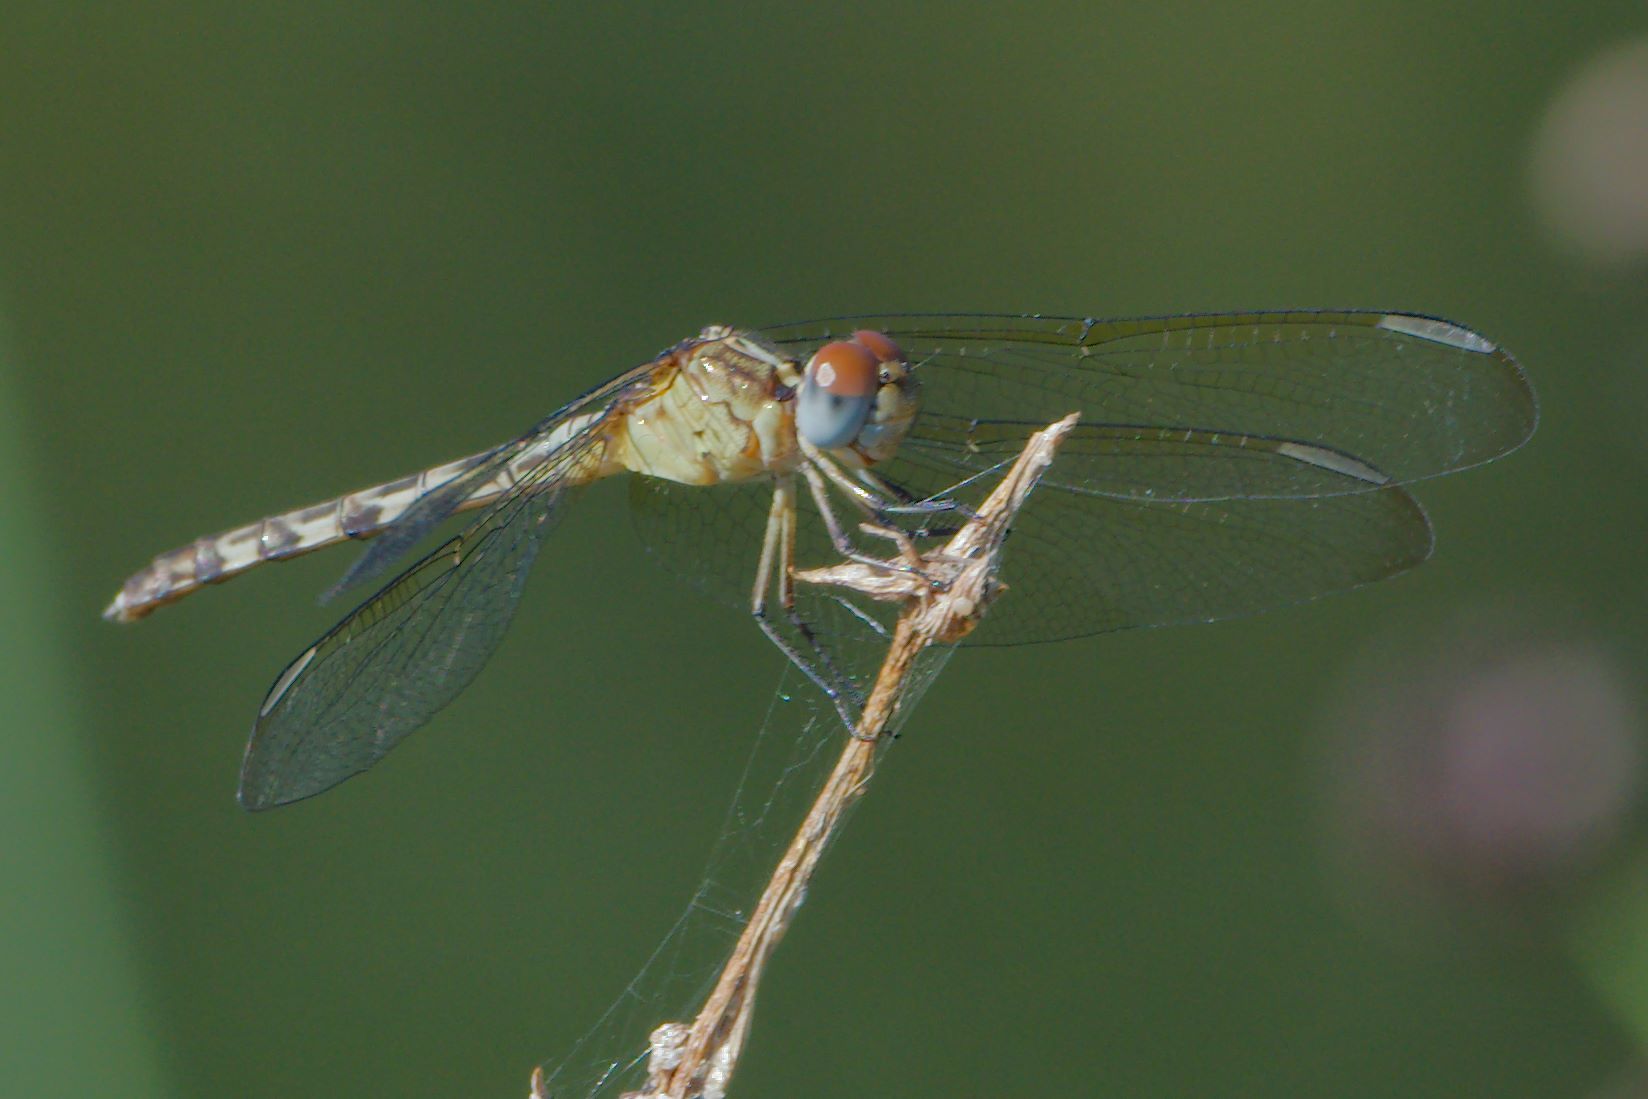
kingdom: Animalia
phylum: Arthropoda
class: Insecta
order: Odonata
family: Libellulidae
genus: Erythrodiplax
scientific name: Erythrodiplax umbrata
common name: Band-winged dragonlet
